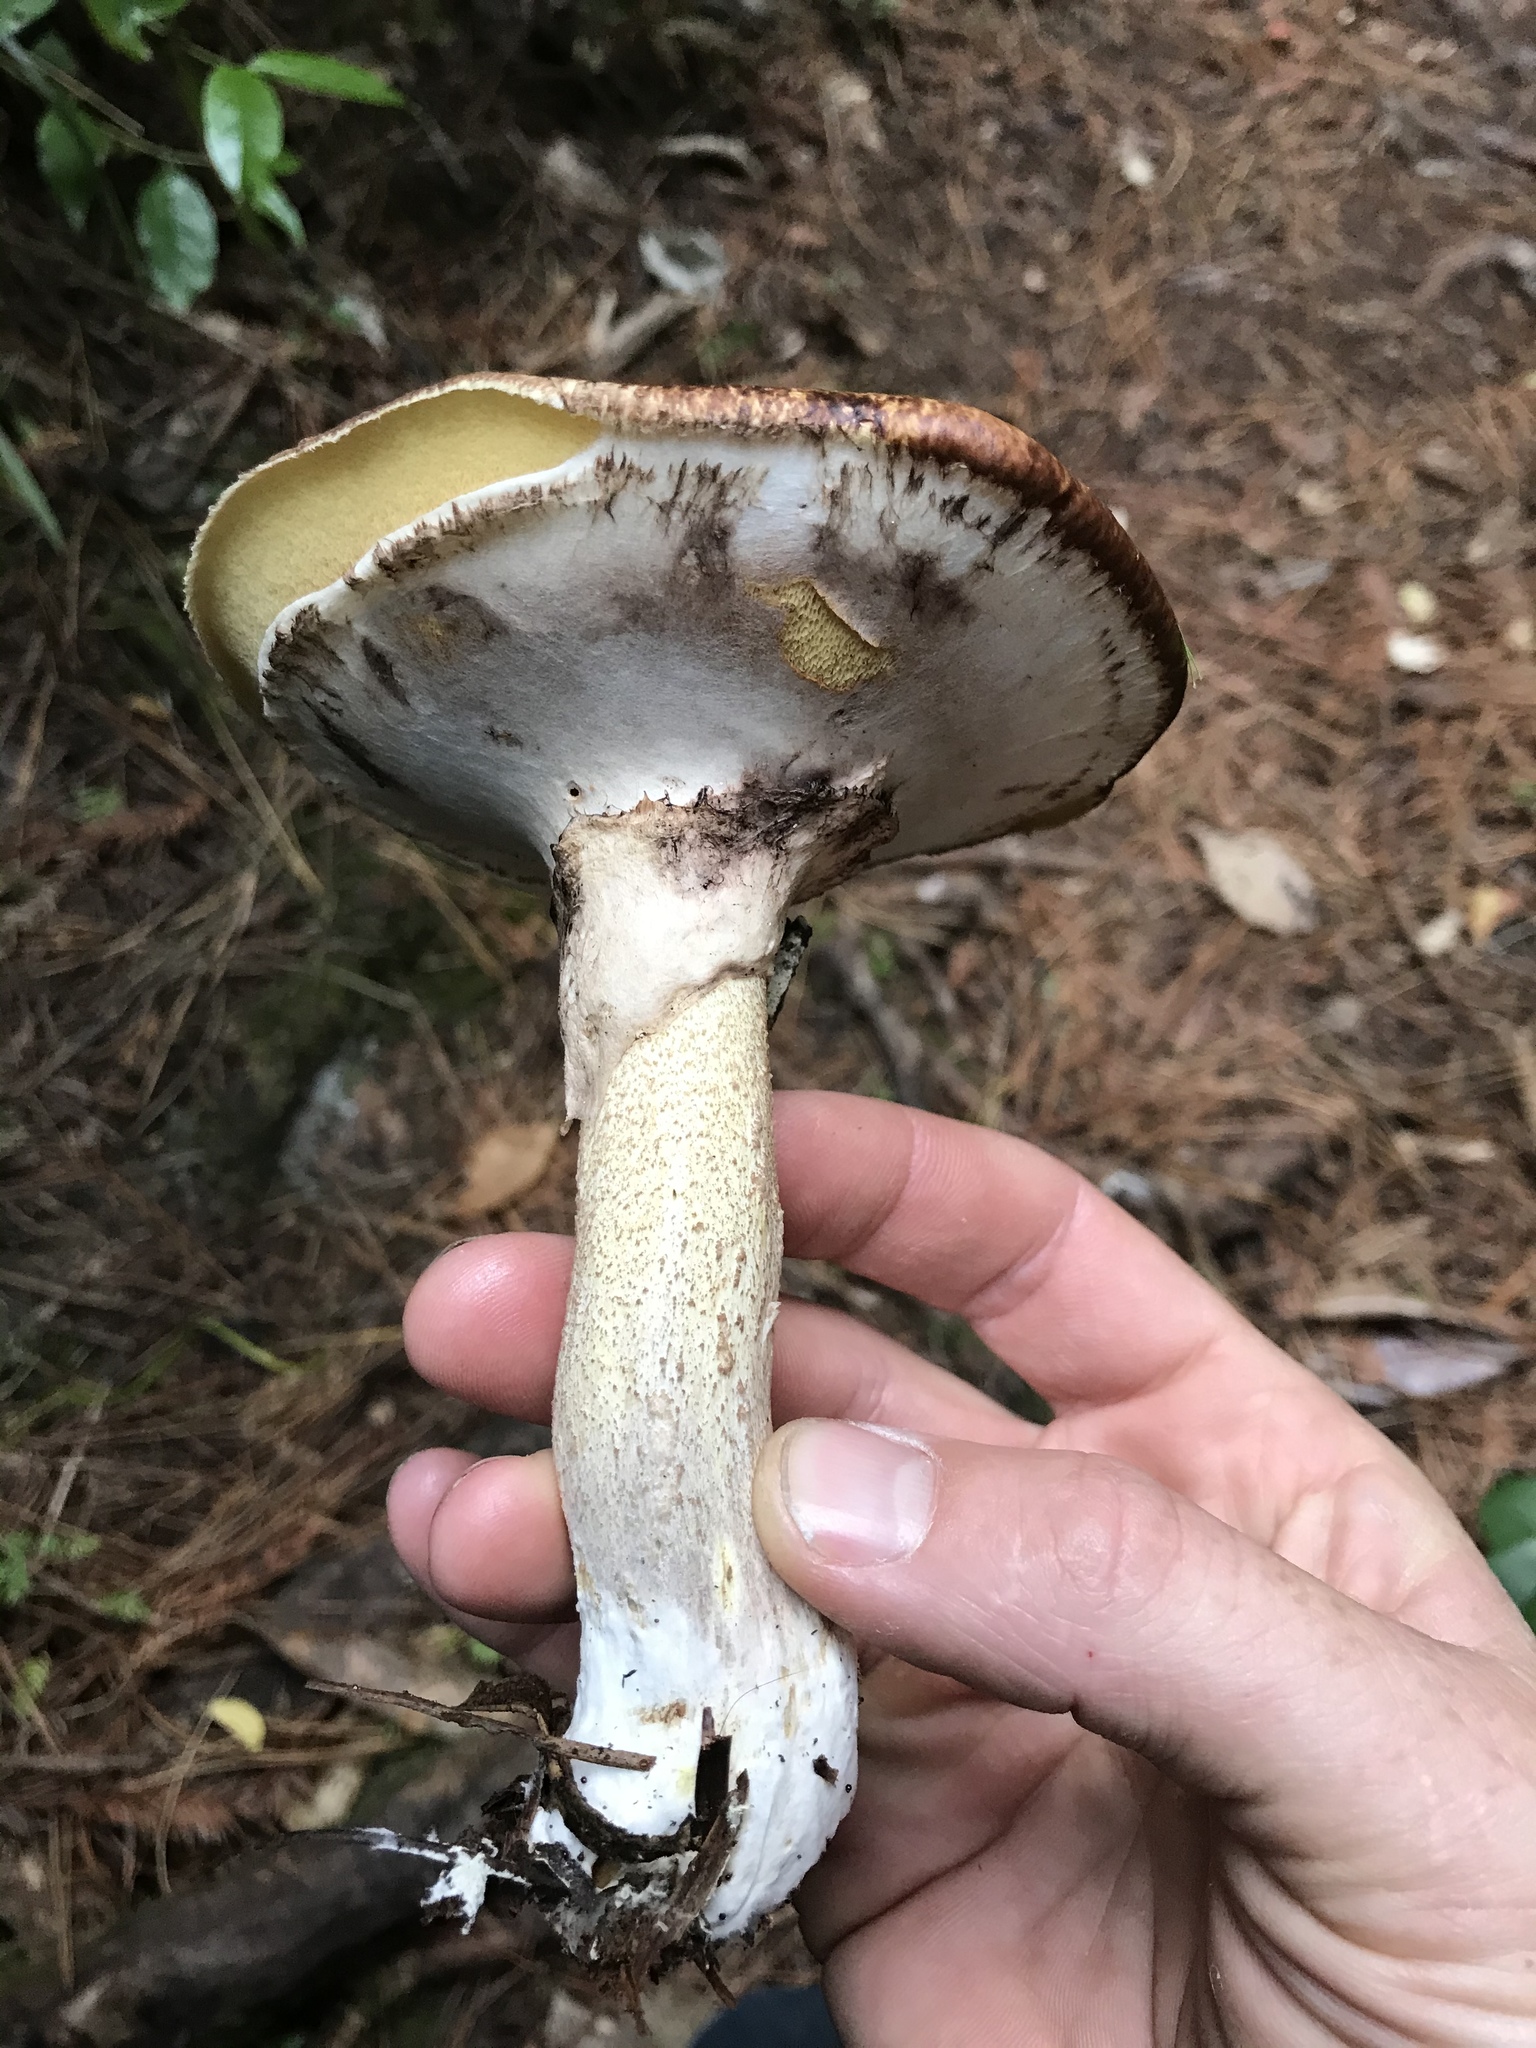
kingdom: Fungi
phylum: Basidiomycota
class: Agaricomycetes
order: Boletales
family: Suillaceae
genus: Suillus
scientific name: Suillus luteus
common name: Slippery jack
